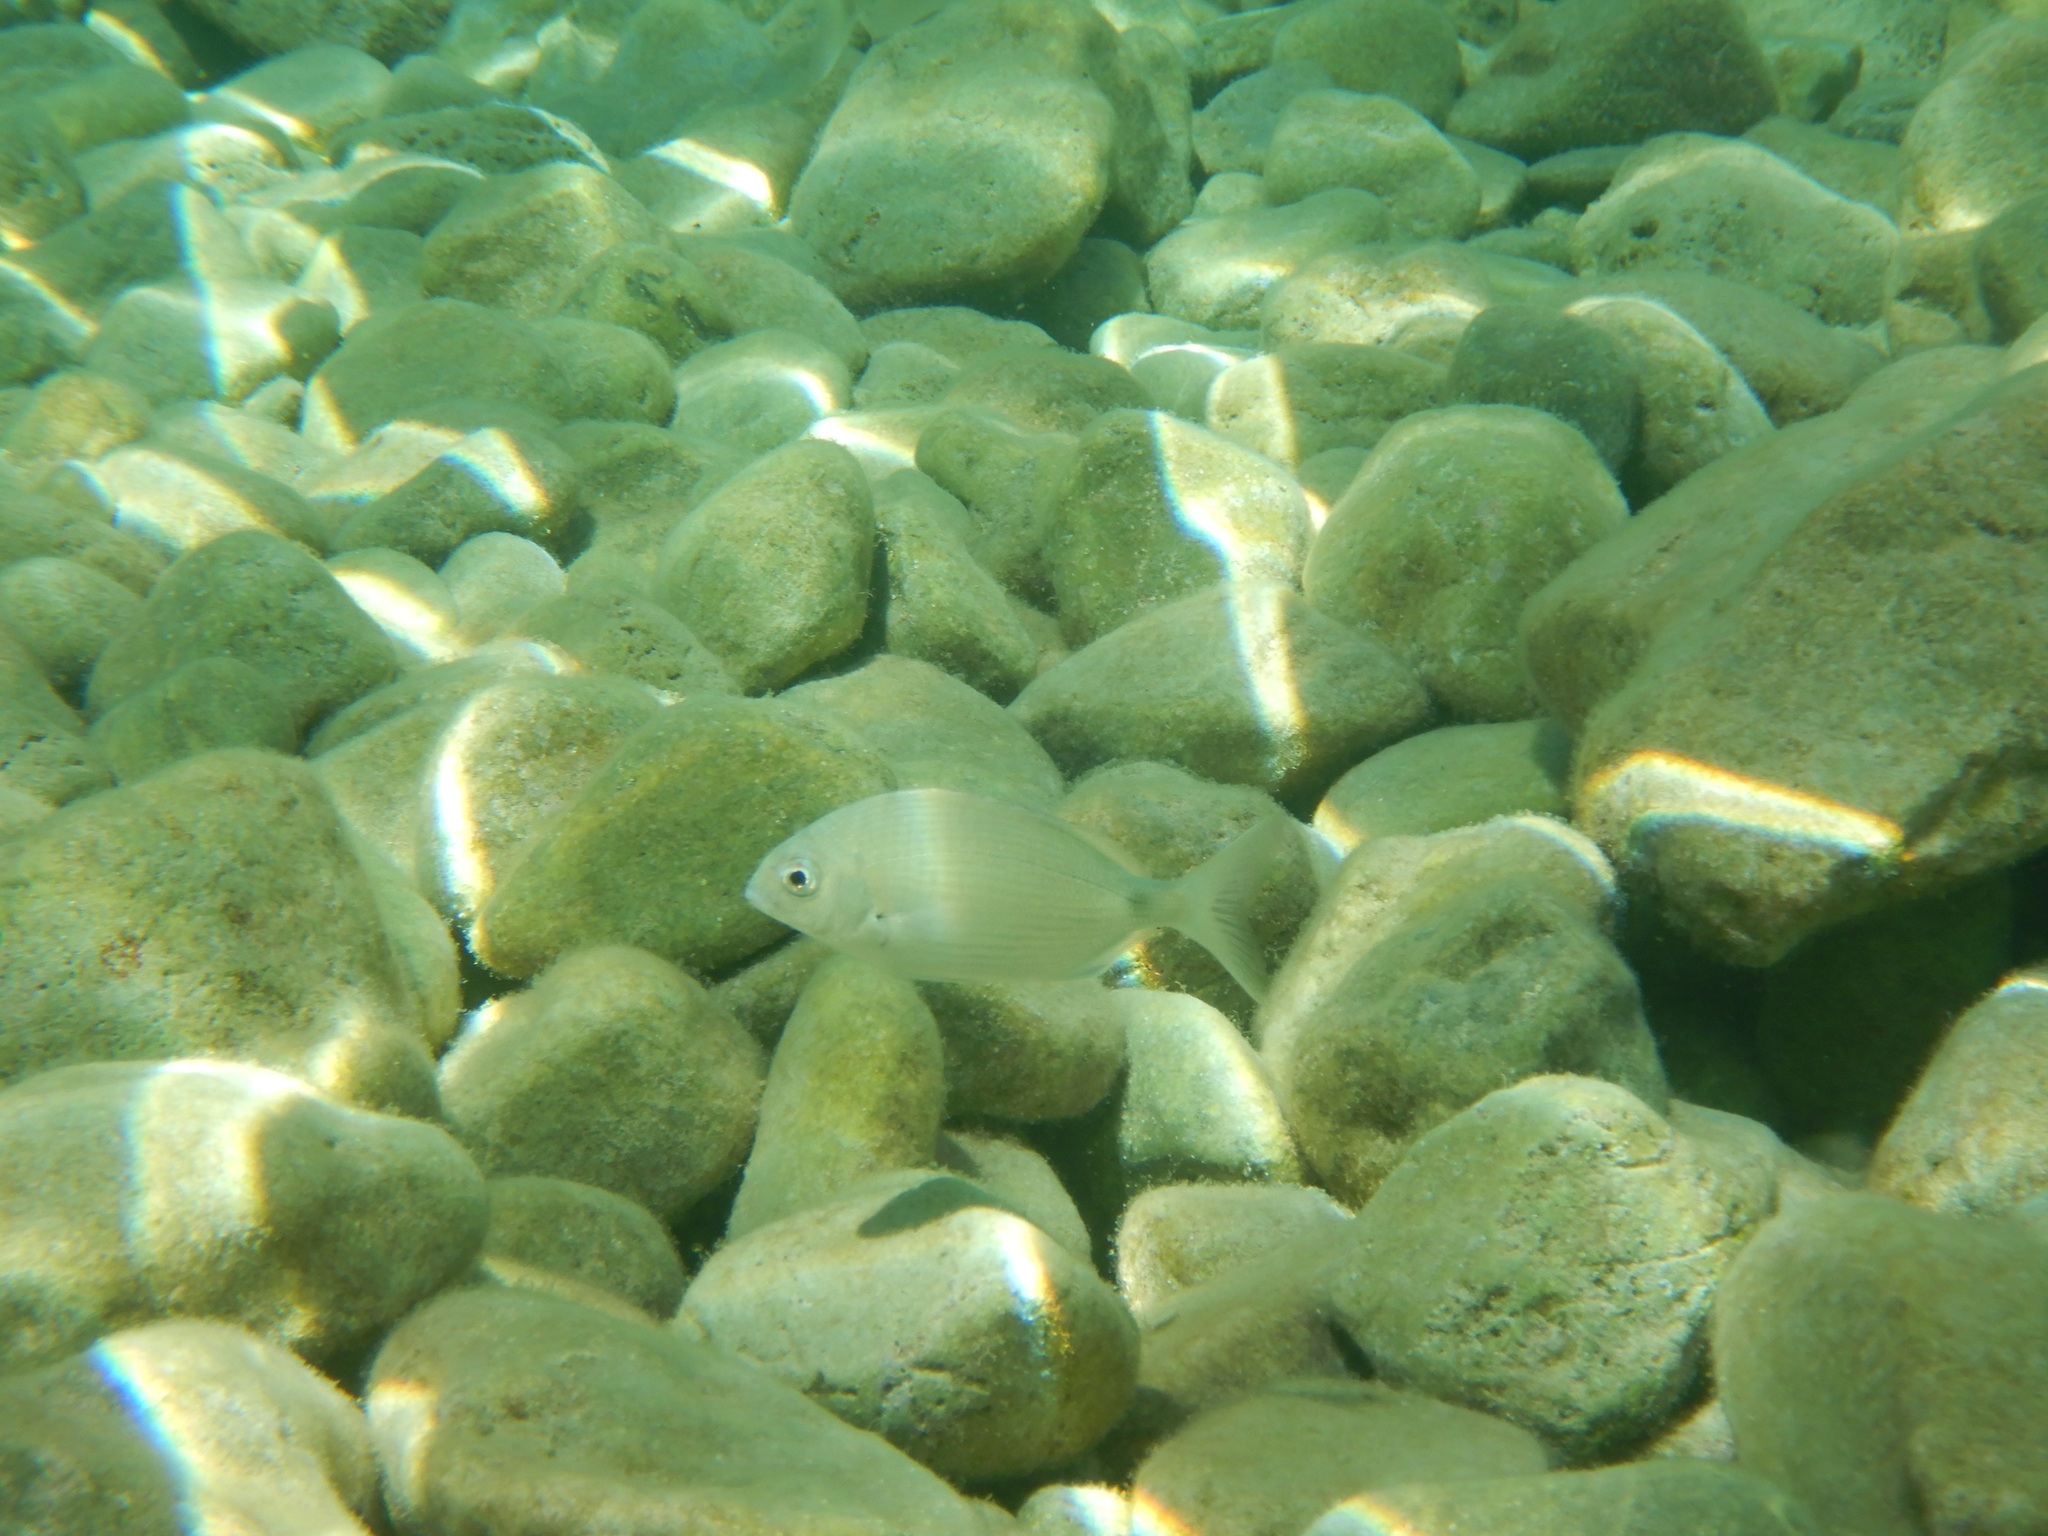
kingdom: Animalia
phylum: Chordata
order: Perciformes
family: Sparidae
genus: Diplodus
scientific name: Diplodus sargus
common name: White seabream
